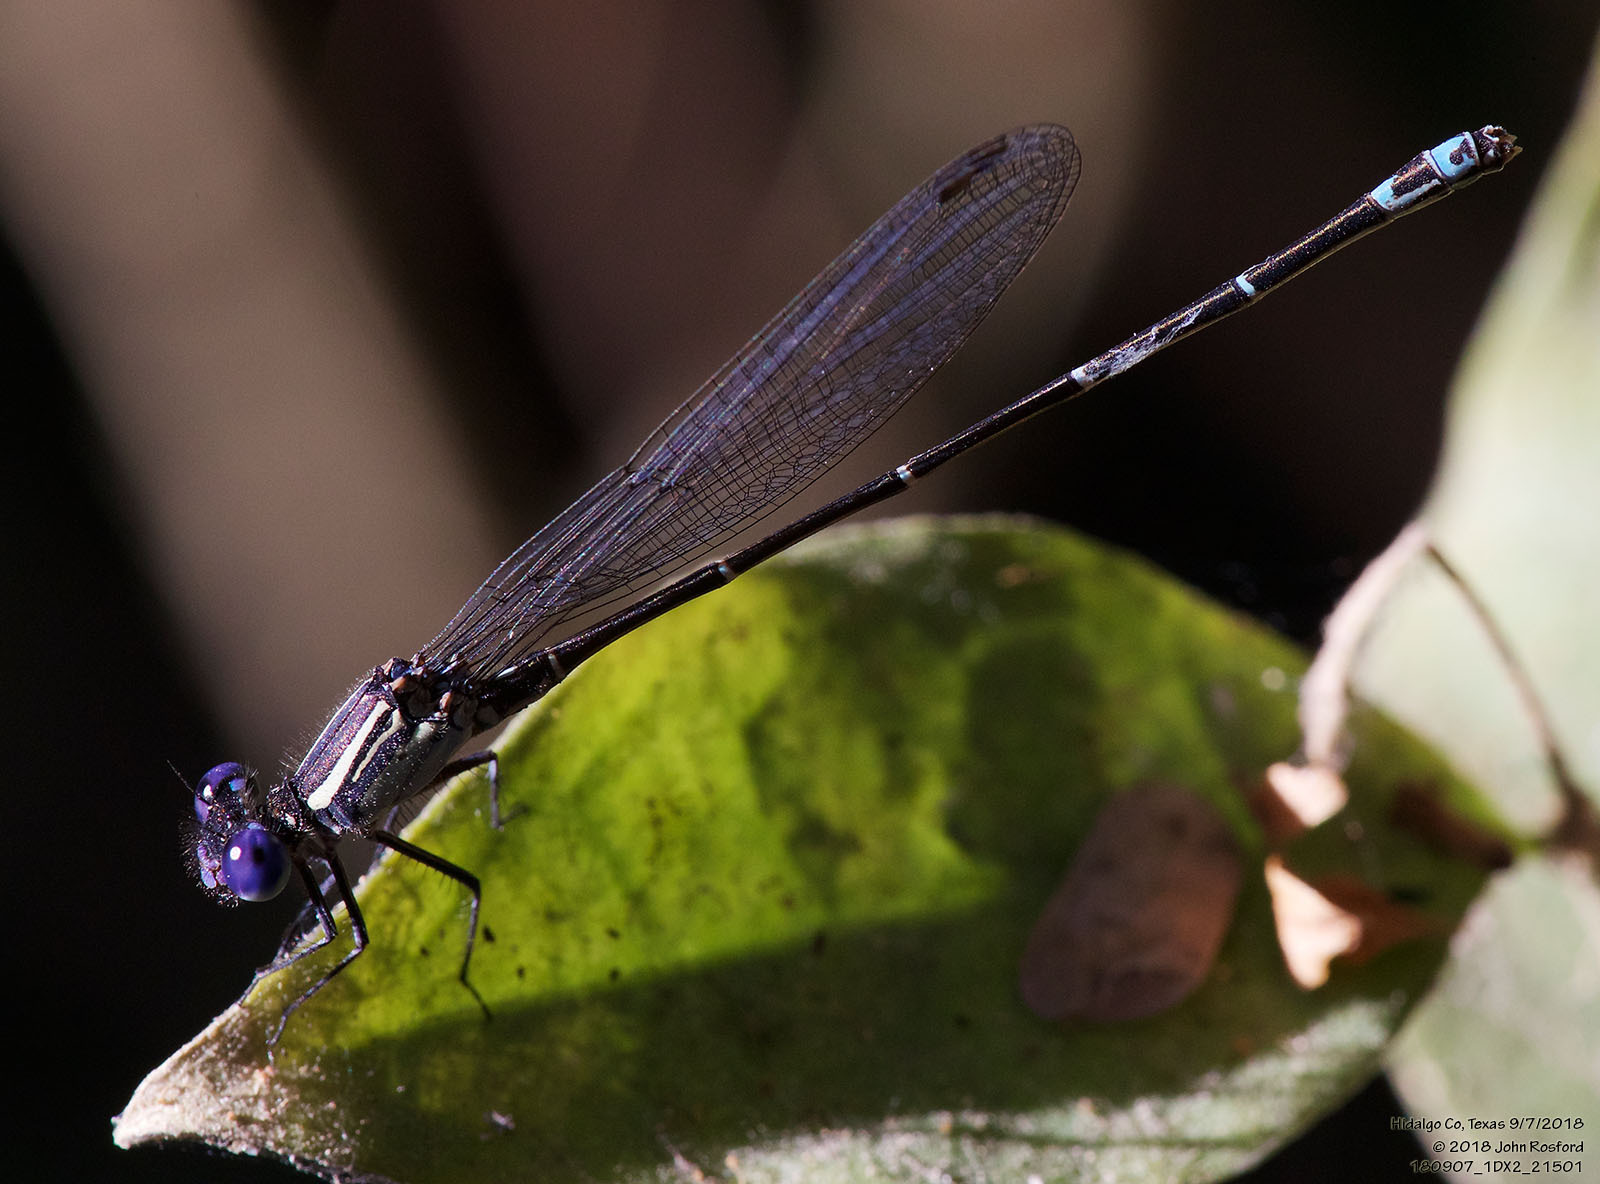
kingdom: Animalia
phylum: Arthropoda
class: Insecta
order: Odonata
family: Coenagrionidae
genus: Argia
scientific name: Argia translata
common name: Dusky dancer
